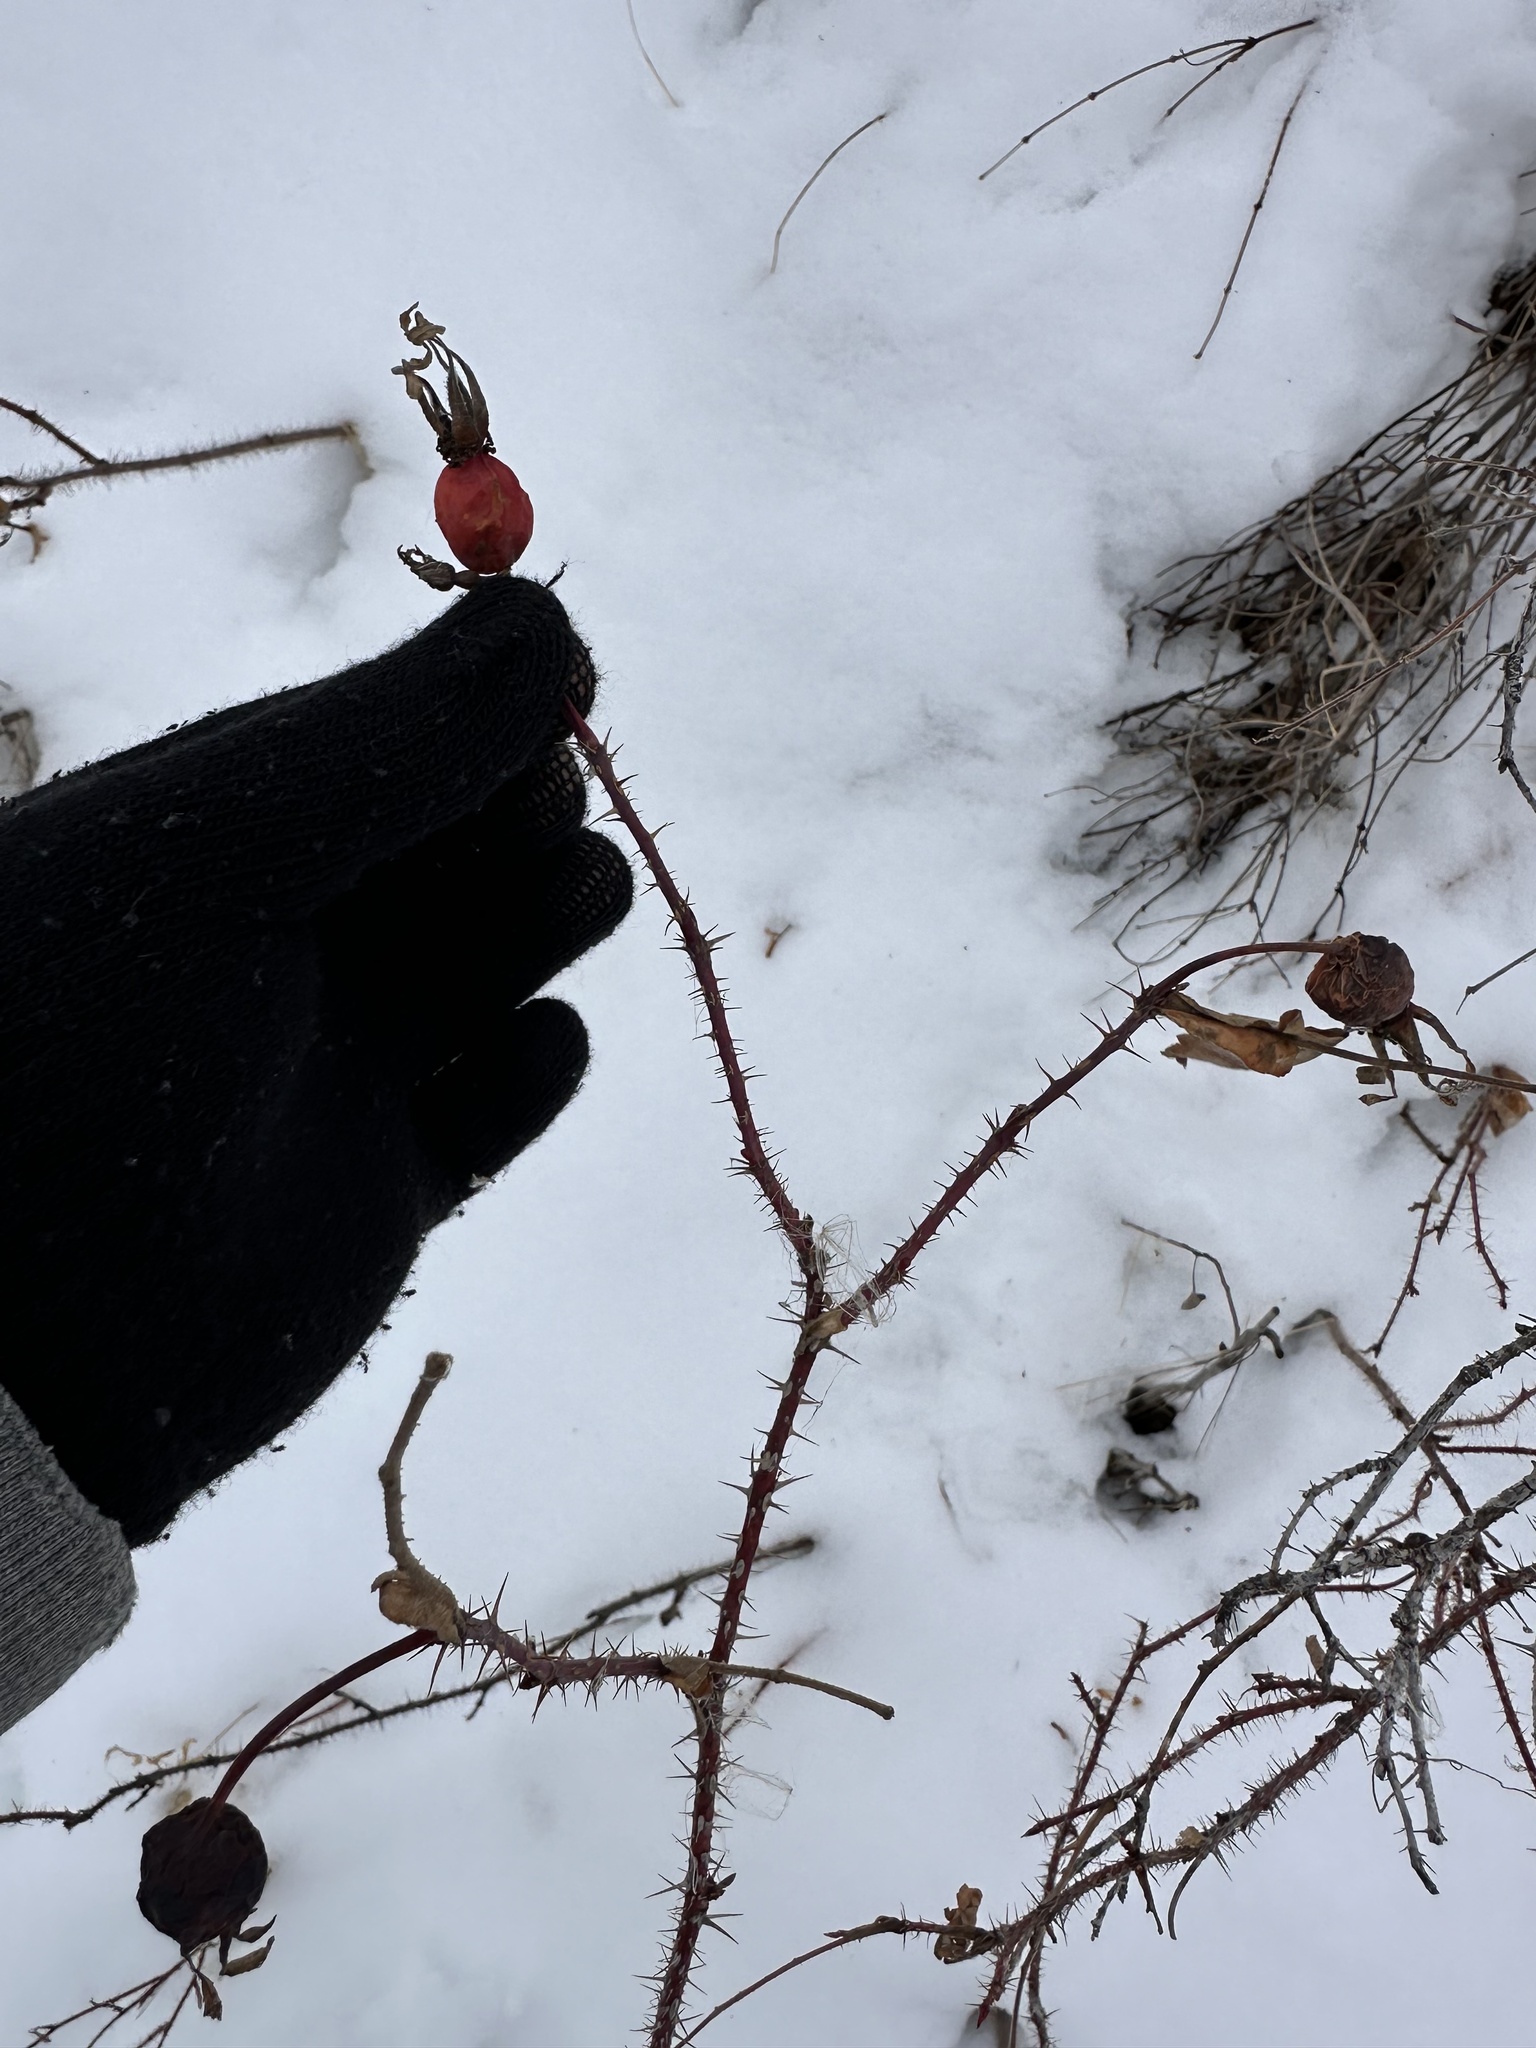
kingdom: Plantae
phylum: Tracheophyta
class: Magnoliopsida
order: Rosales
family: Rosaceae
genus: Rosa
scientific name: Rosa acicularis
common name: Prickly rose
